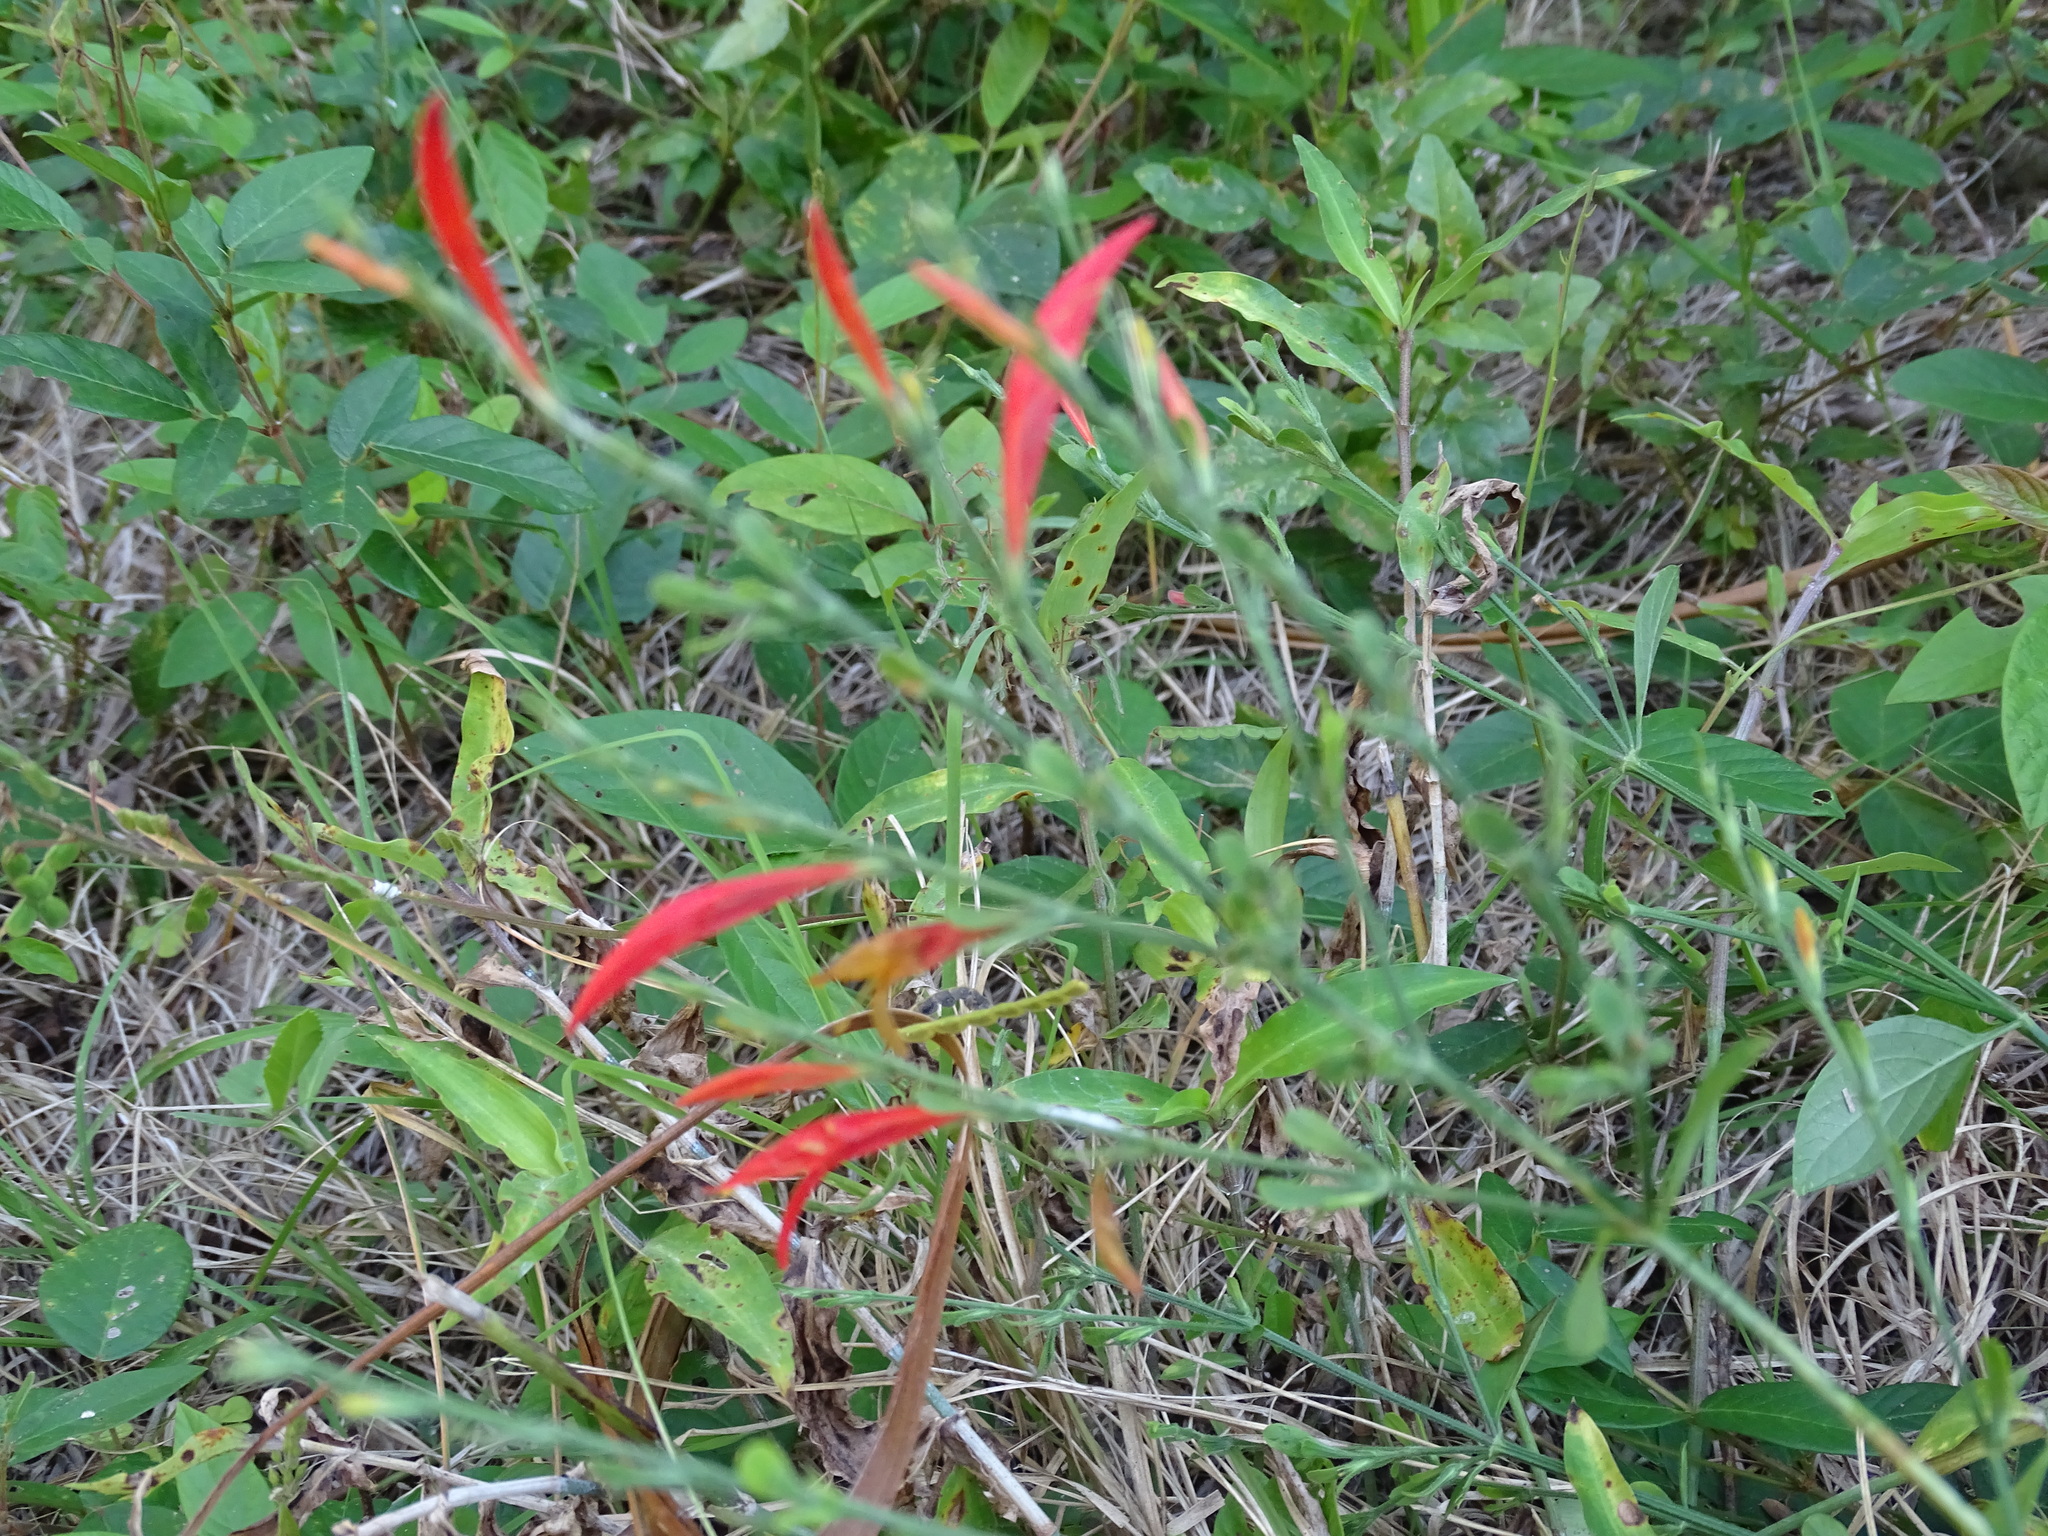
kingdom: Plantae
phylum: Tracheophyta
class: Magnoliopsida
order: Lamiales
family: Acanthaceae
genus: Dicliptera
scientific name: Dicliptera sexangularis
